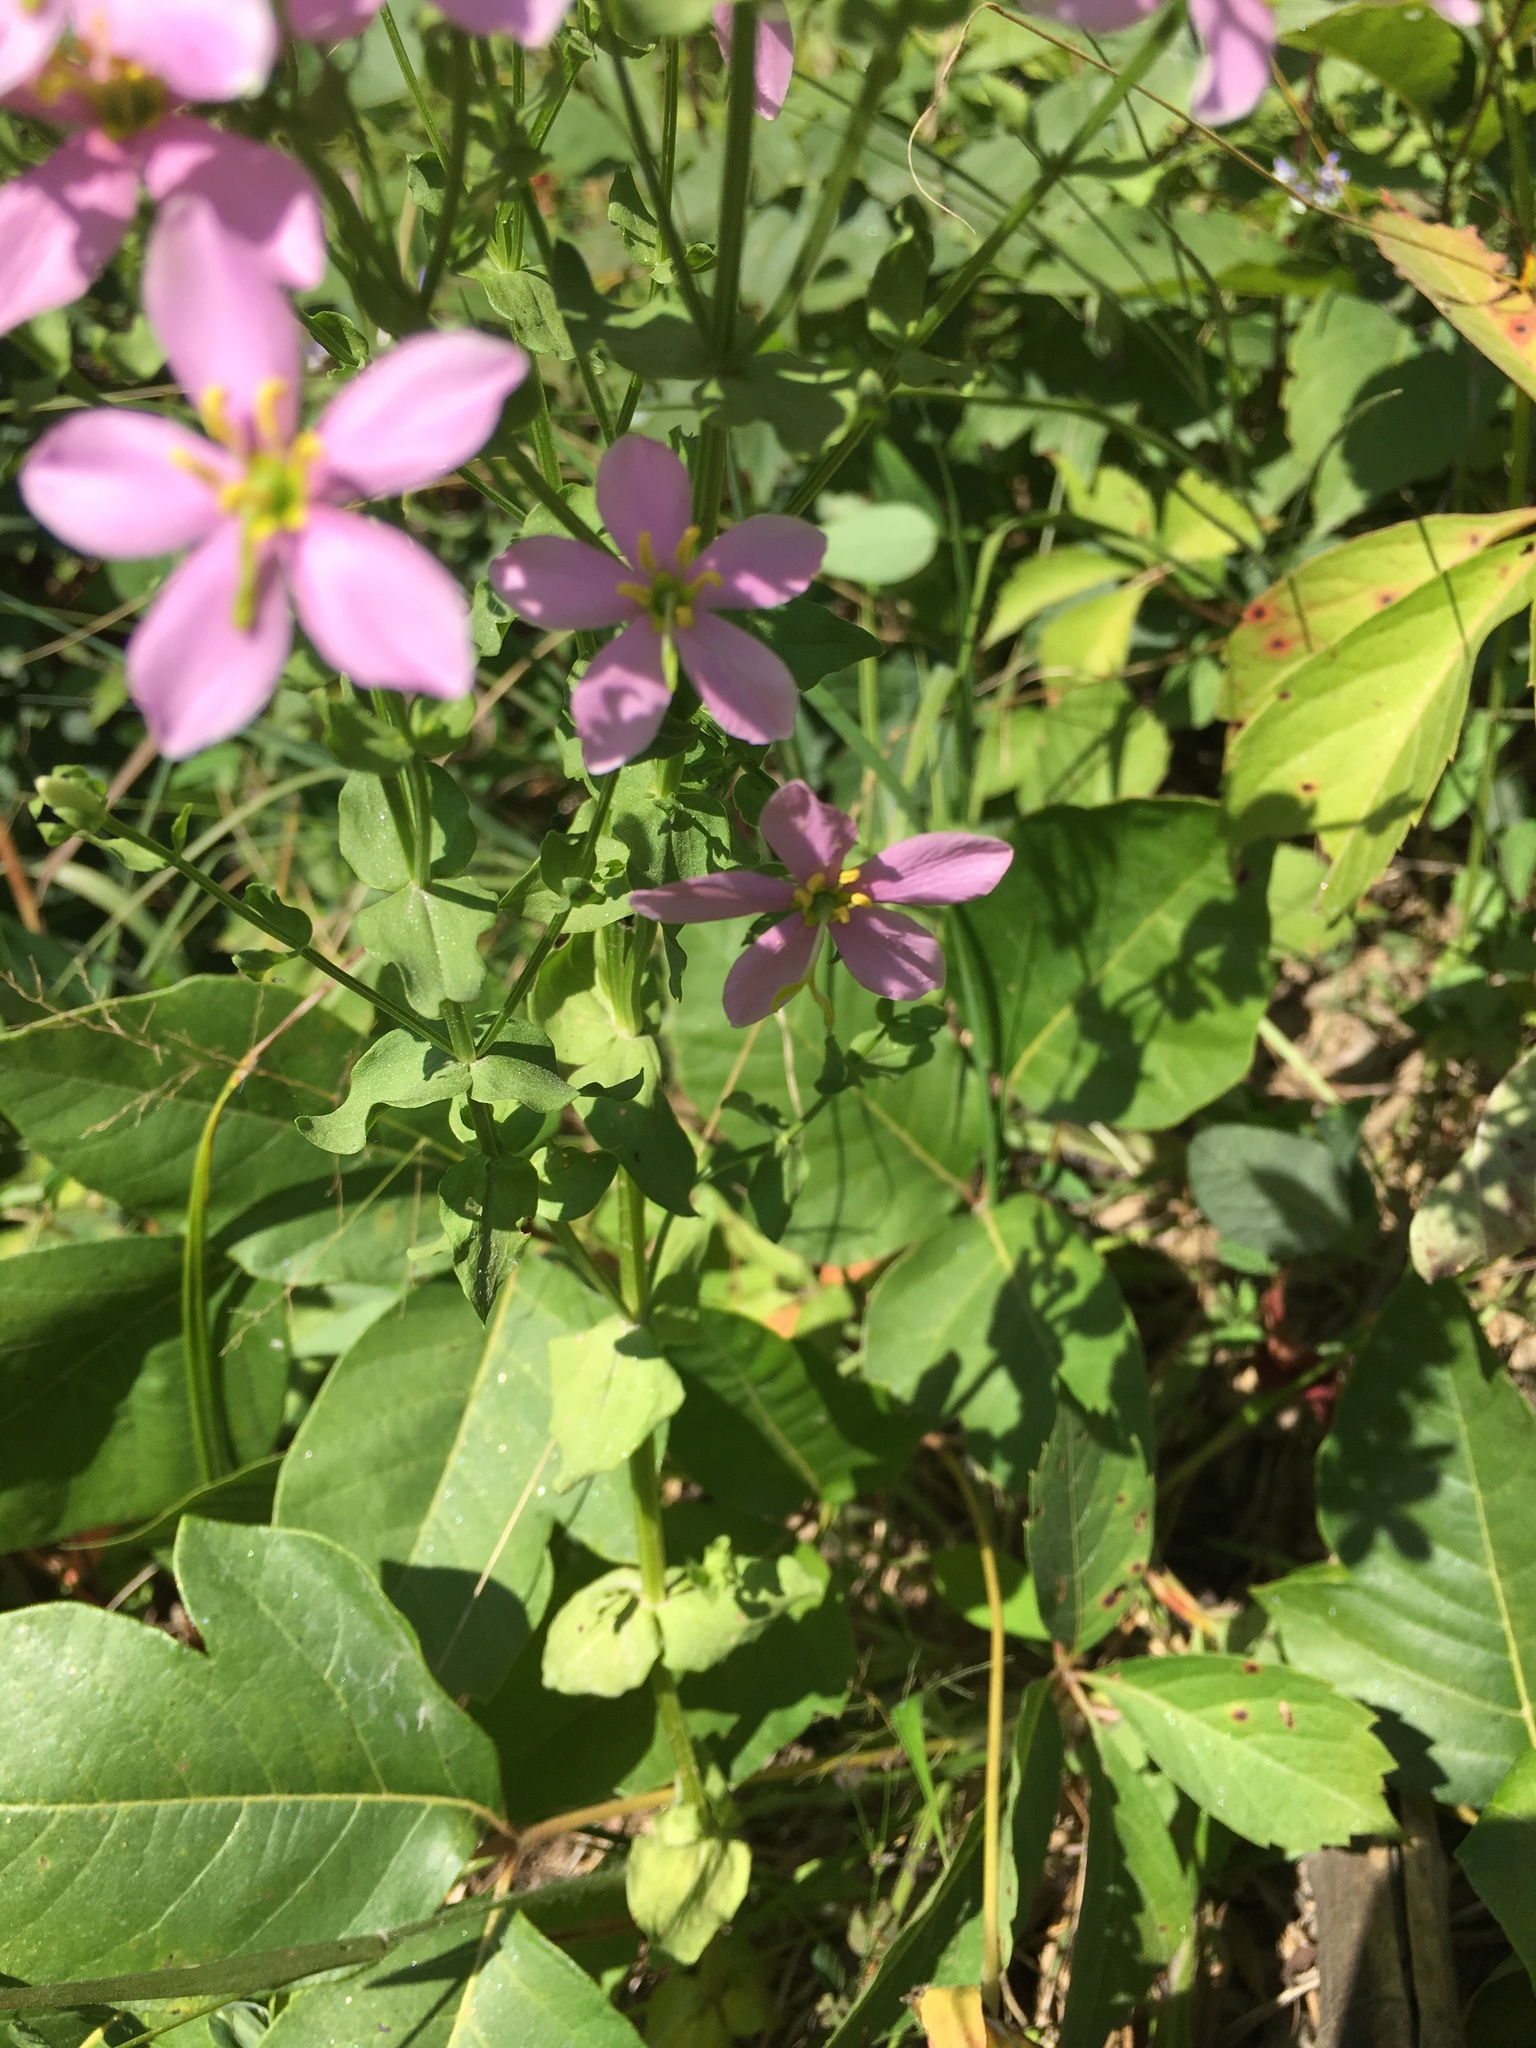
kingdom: Plantae
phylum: Tracheophyta
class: Magnoliopsida
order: Gentianales
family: Gentianaceae
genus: Sabatia
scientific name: Sabatia angularis
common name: Rose-pink
